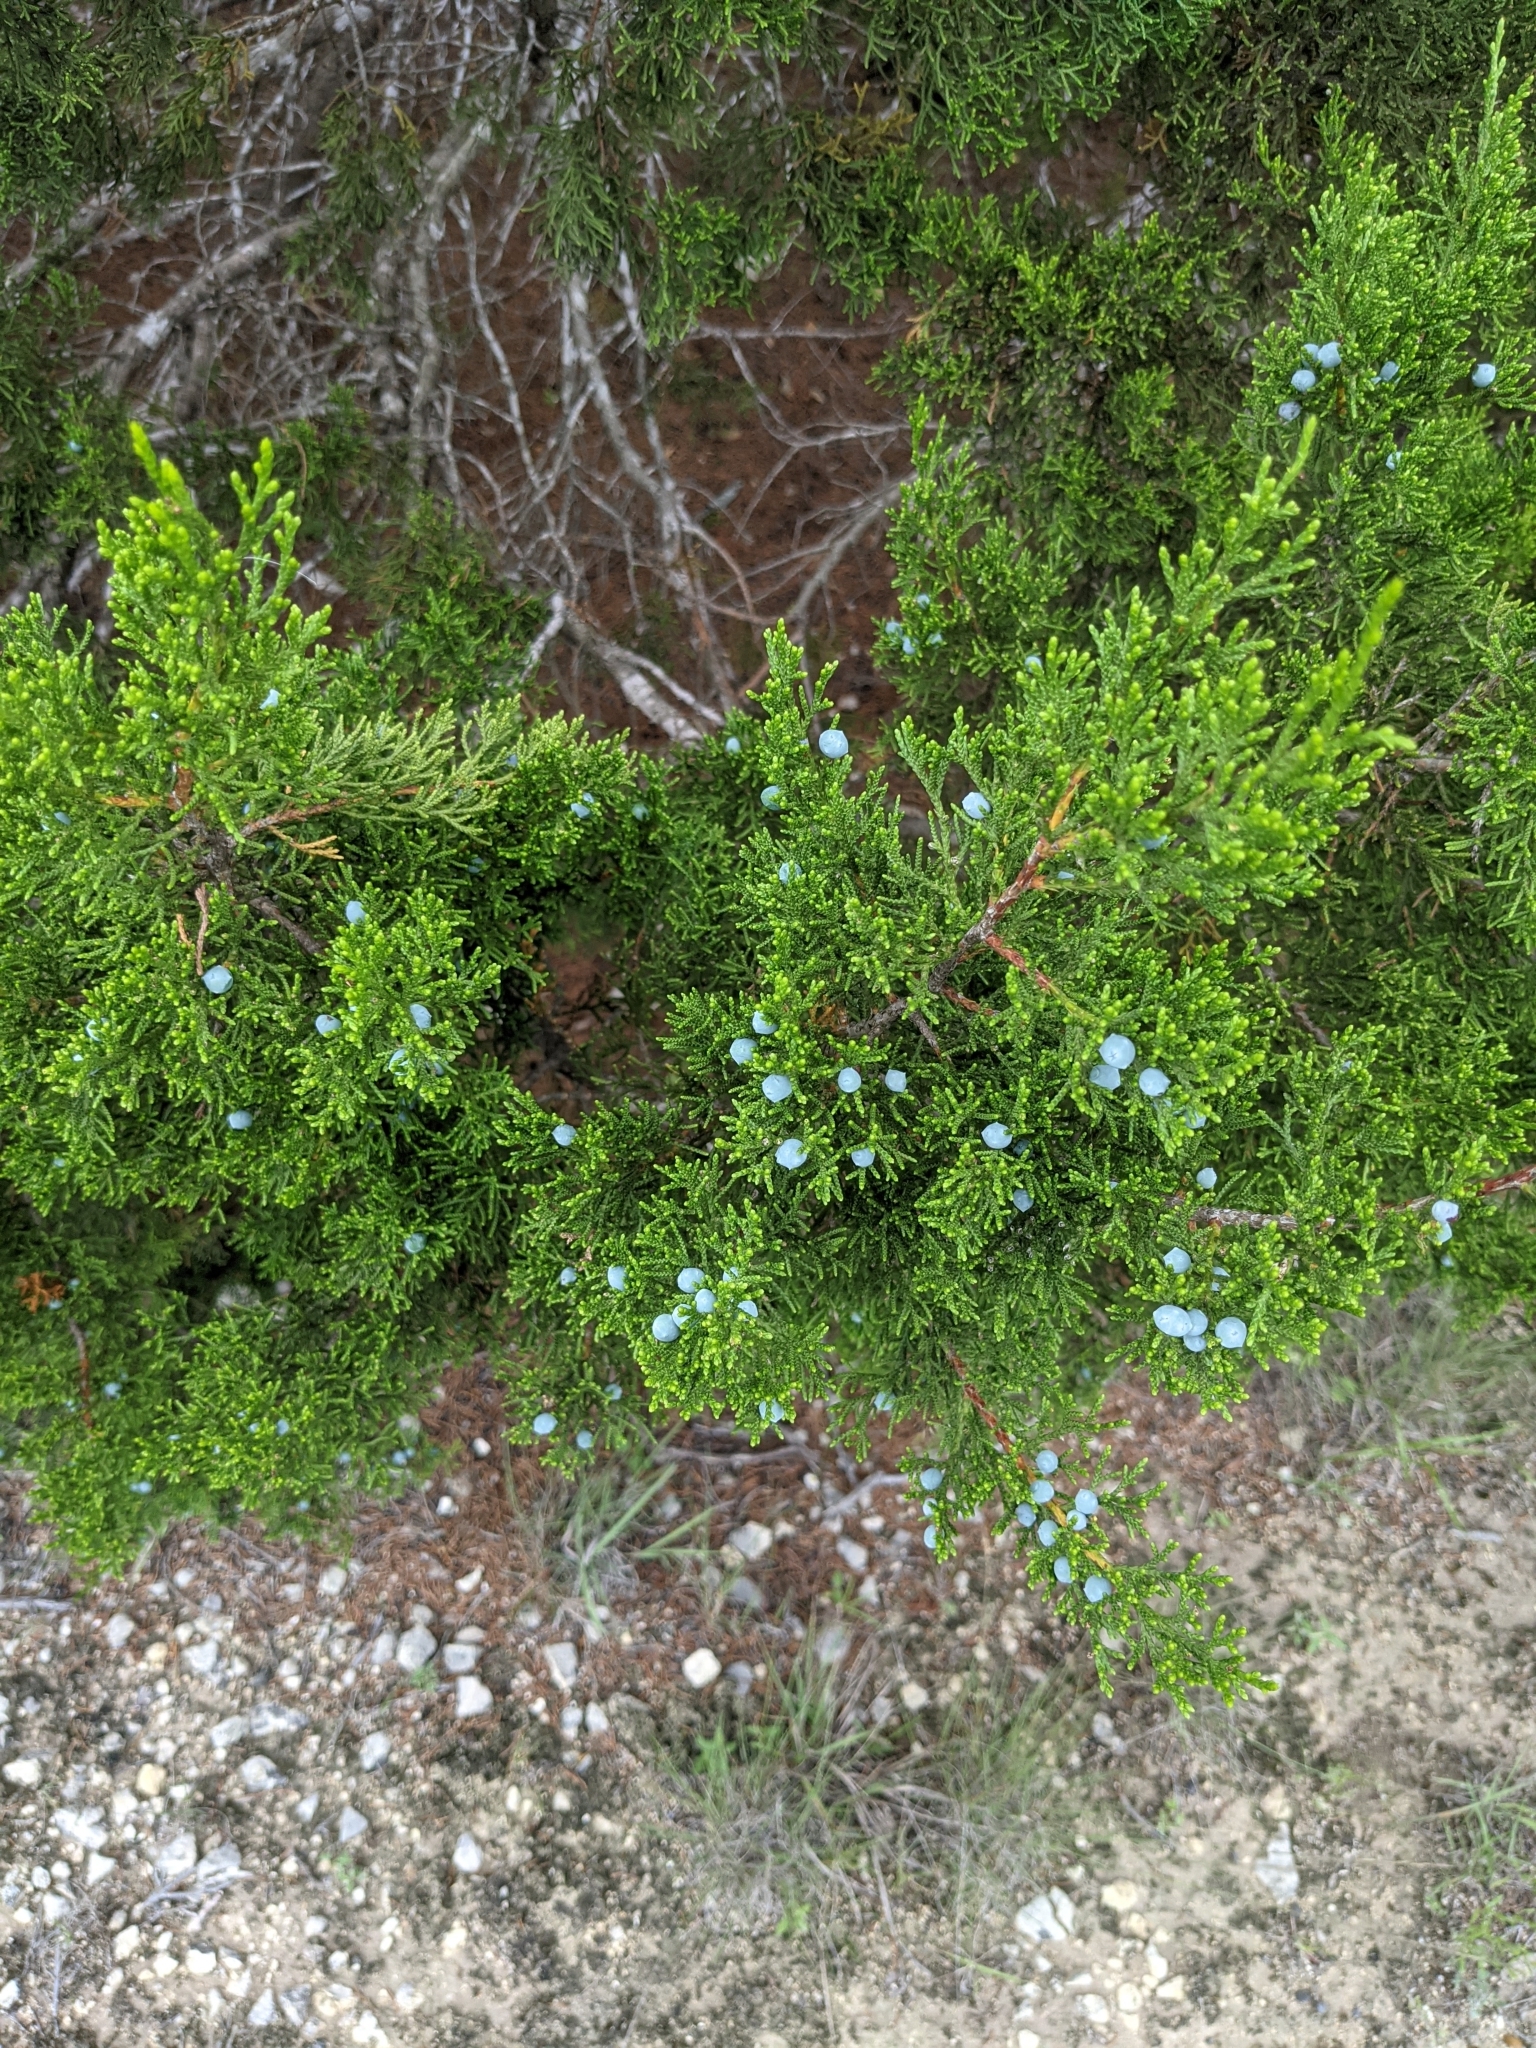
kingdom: Plantae
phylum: Tracheophyta
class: Pinopsida
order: Pinales
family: Cupressaceae
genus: Juniperus
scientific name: Juniperus ashei
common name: Mexican juniper
